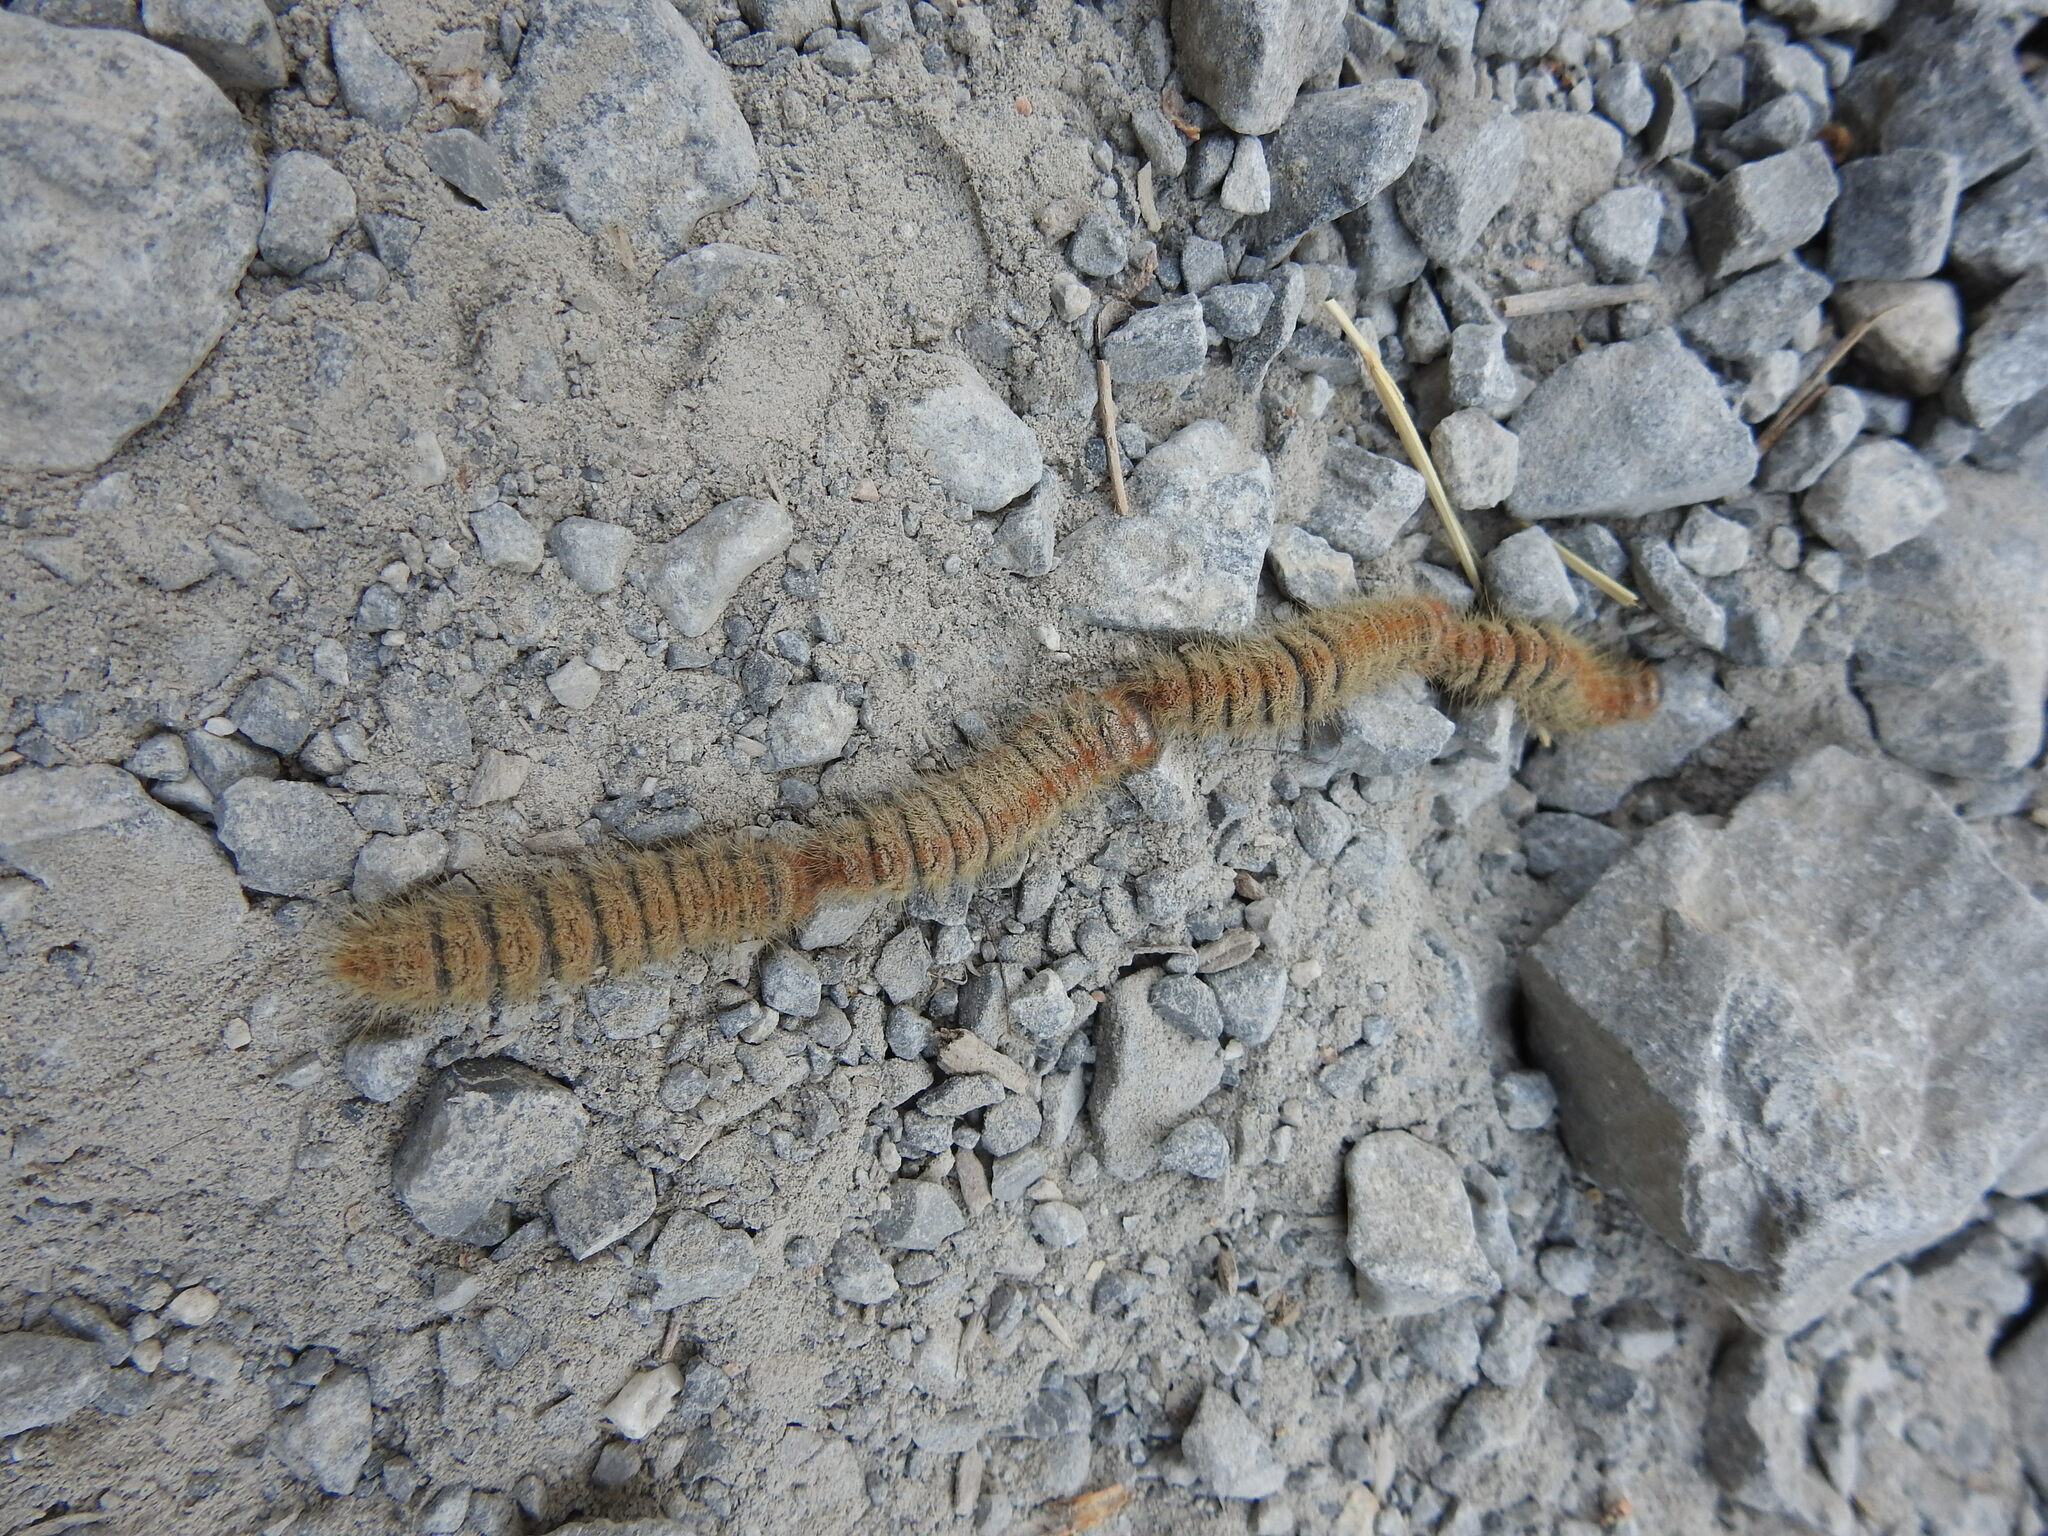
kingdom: Animalia
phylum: Arthropoda
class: Insecta
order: Lepidoptera
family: Notodontidae
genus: Thaumetopoea
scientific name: Thaumetopoea
